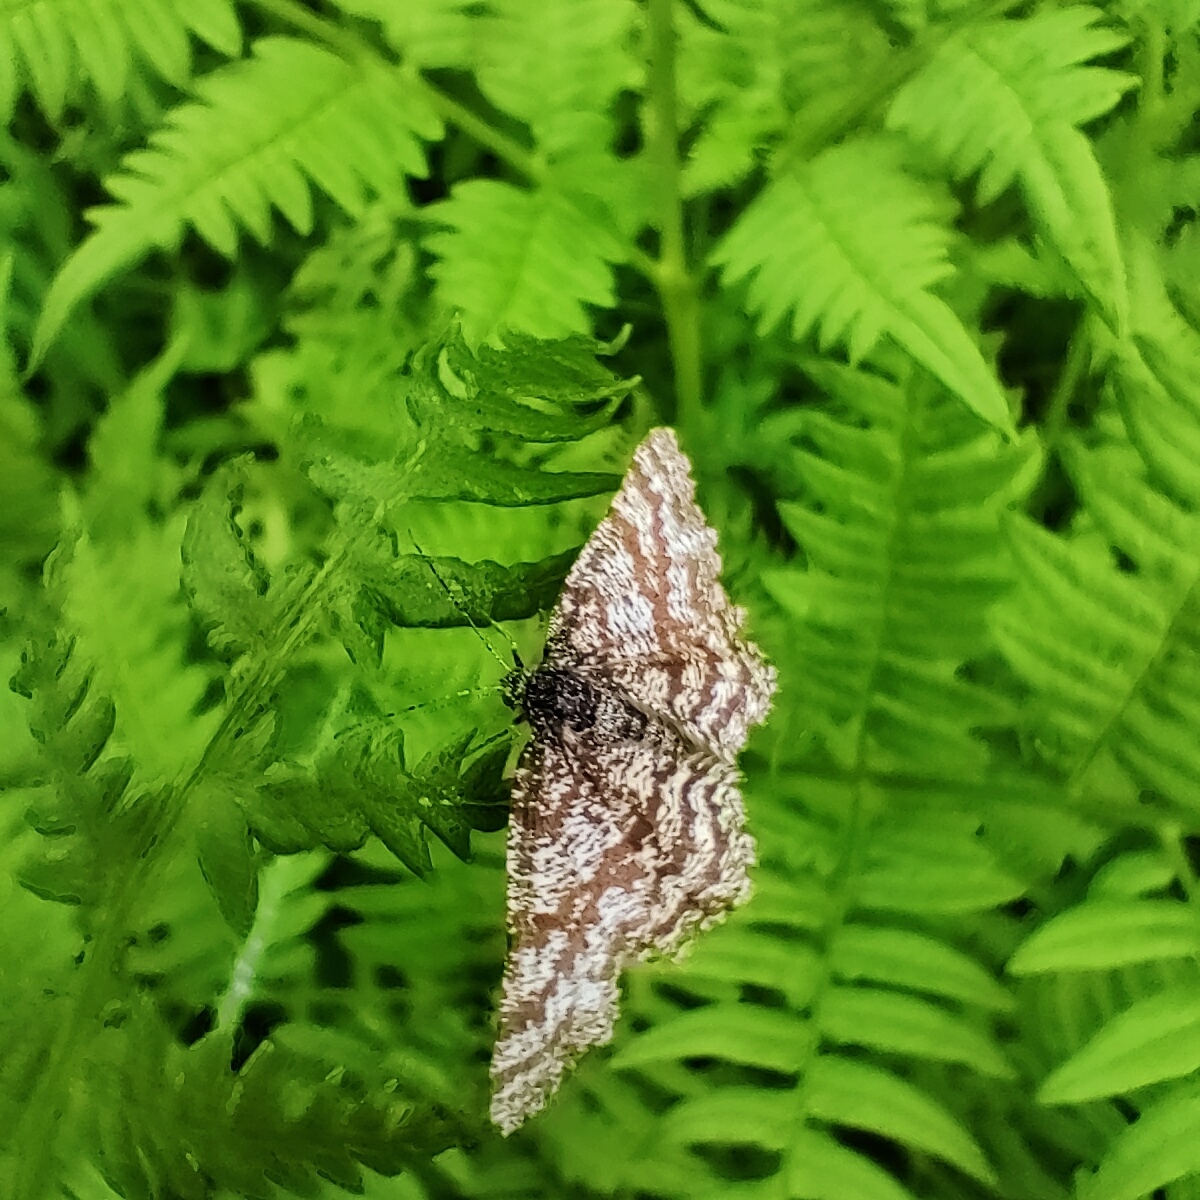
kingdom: Animalia
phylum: Arthropoda
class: Insecta
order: Lepidoptera
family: Geometridae
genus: Ematurga
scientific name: Ematurga atomaria
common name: Common heath
